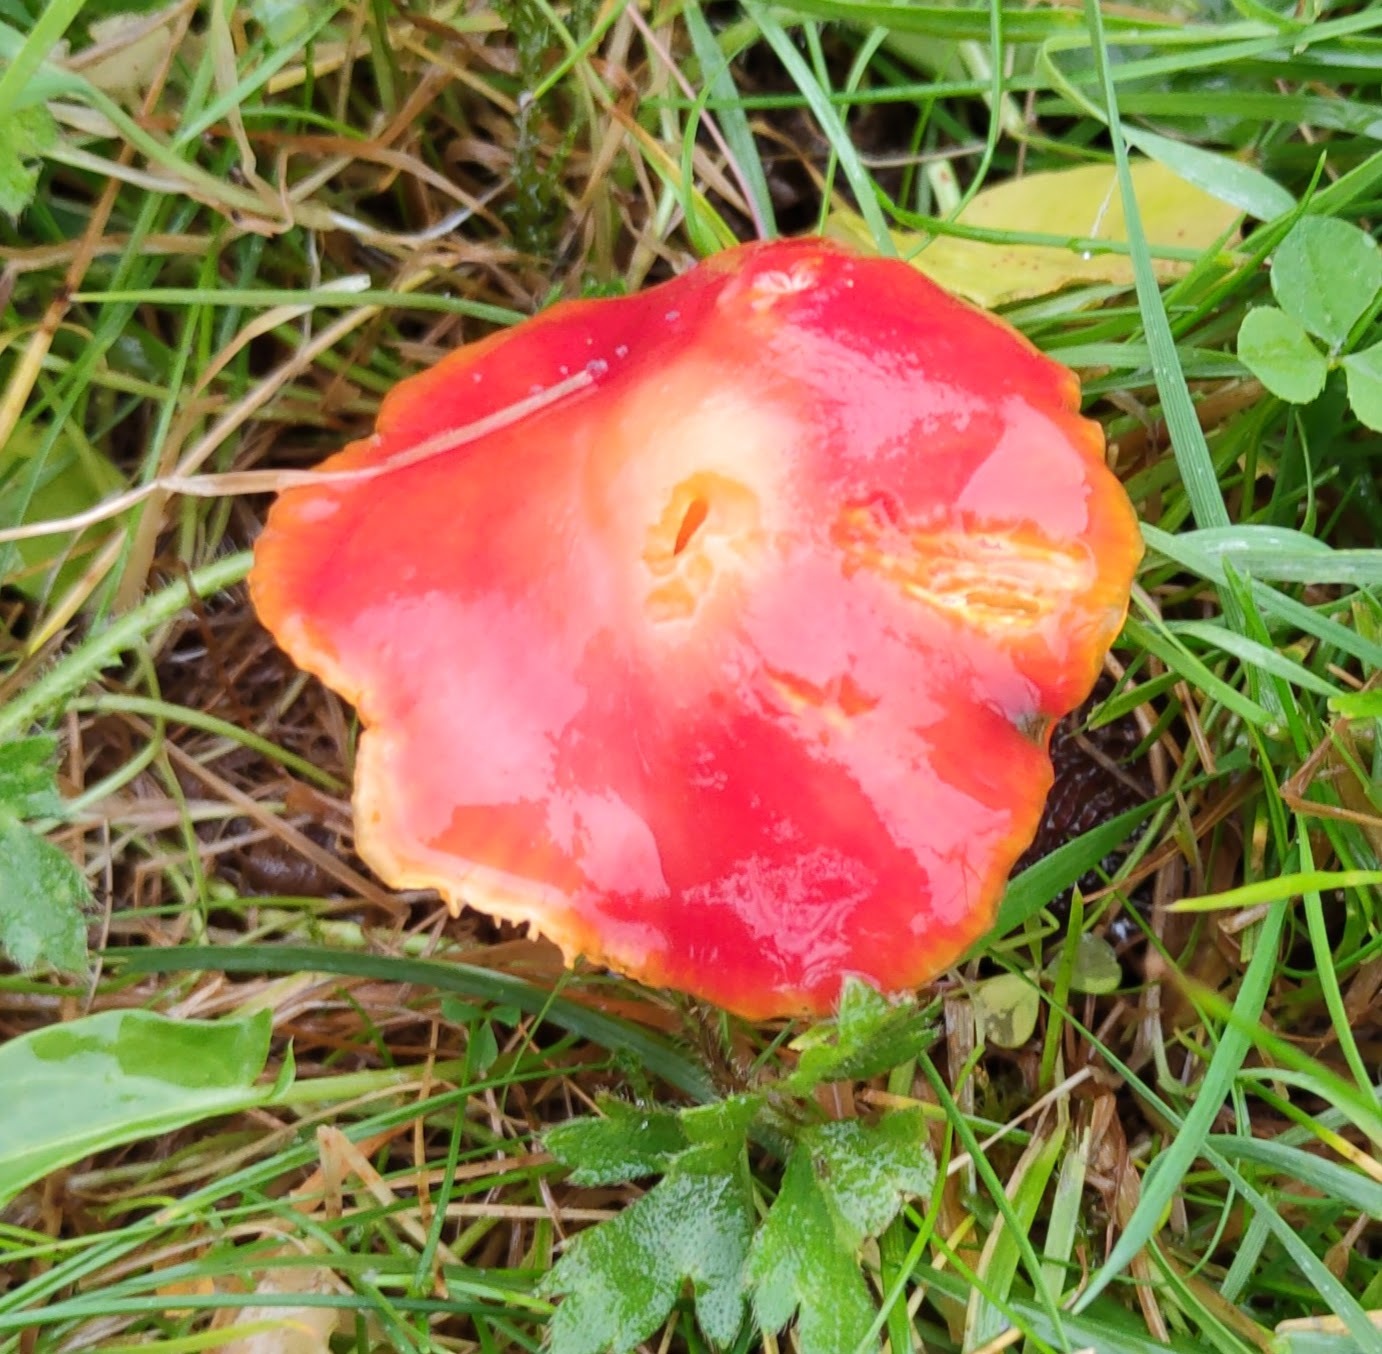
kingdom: Fungi
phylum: Basidiomycota
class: Agaricomycetes
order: Agaricales
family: Hygrophoraceae
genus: Hygrocybe
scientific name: Hygrocybe coccinea
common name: Scarlet hood
